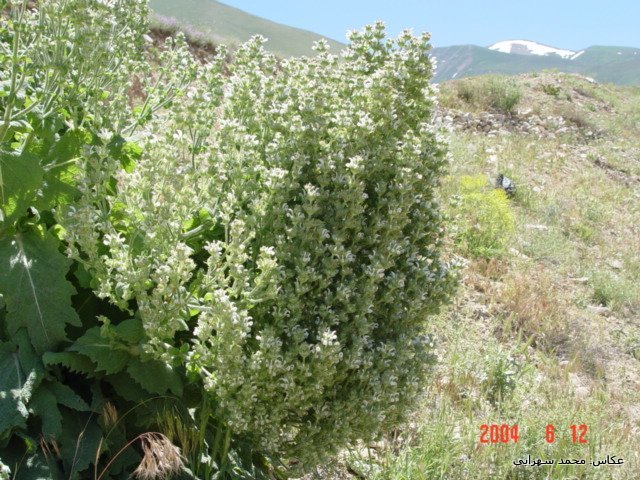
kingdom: Plantae
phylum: Tracheophyta
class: Magnoliopsida
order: Lamiales
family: Lamiaceae
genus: Salvia
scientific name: Salvia aethiopis
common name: Mediterranean sage
